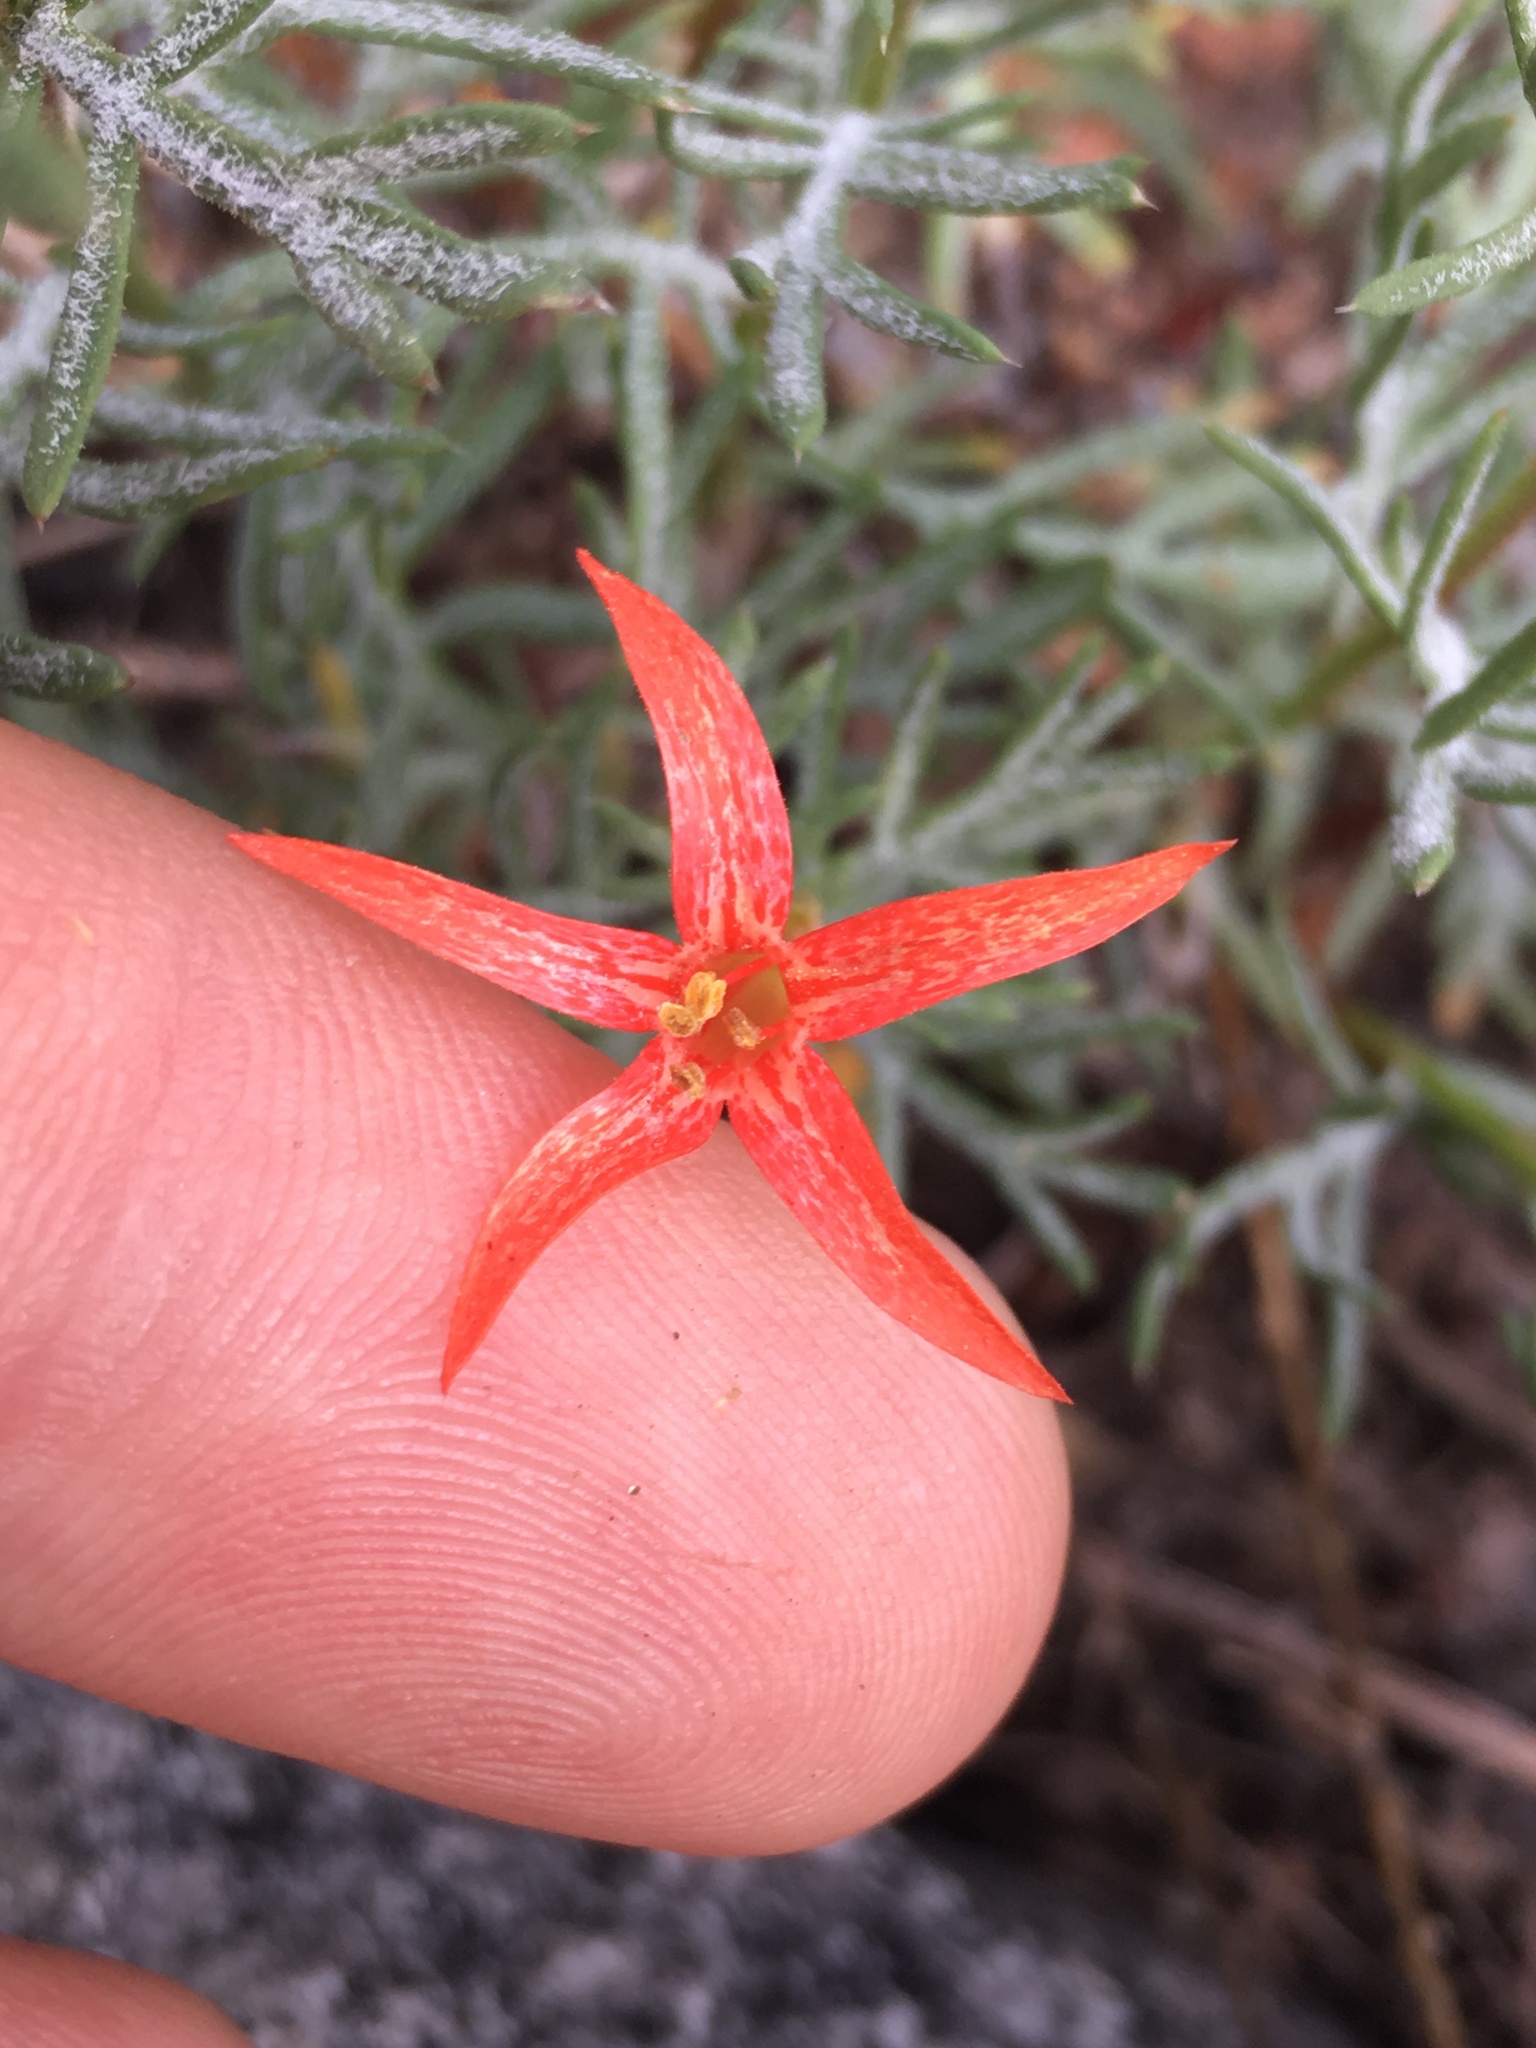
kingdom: Plantae
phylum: Tracheophyta
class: Magnoliopsida
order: Ericales
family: Polemoniaceae
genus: Ipomopsis
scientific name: Ipomopsis aggregata
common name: Scarlet gilia
